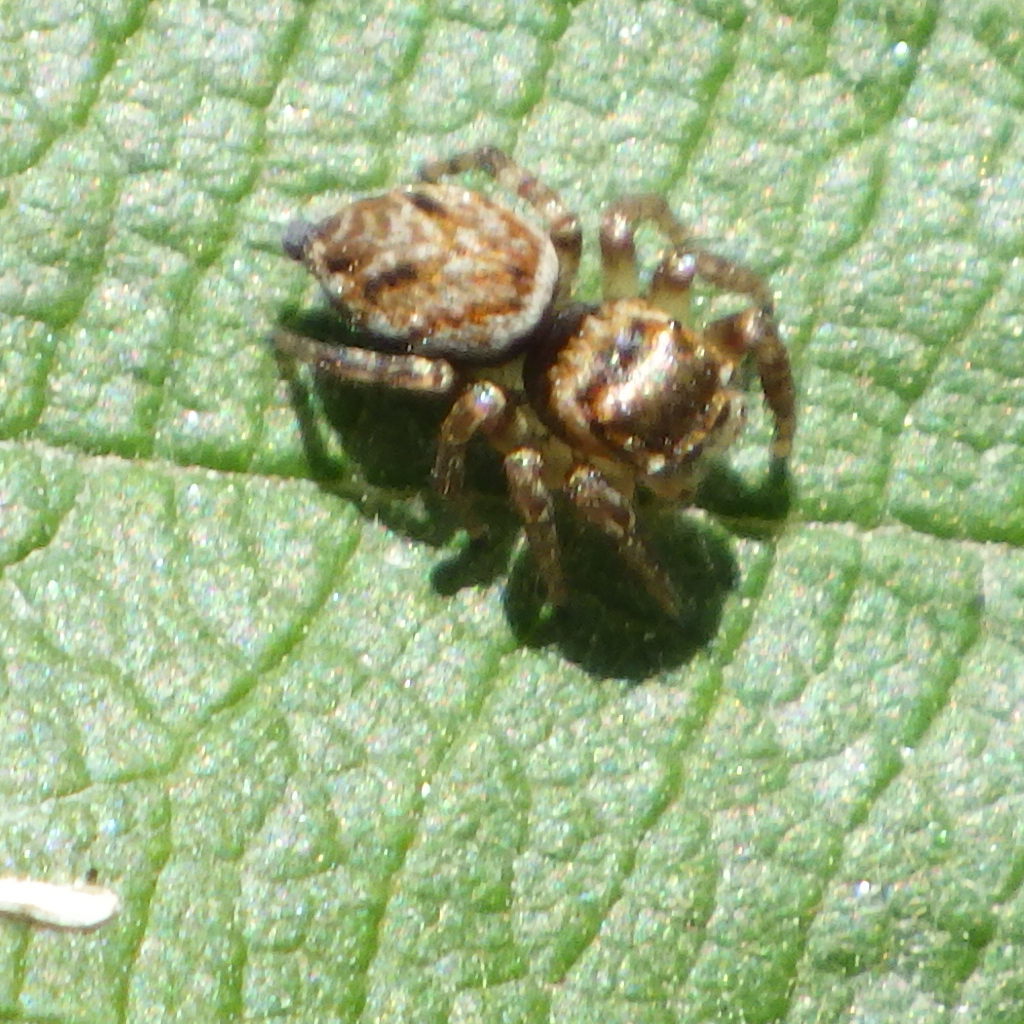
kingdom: Animalia
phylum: Arthropoda
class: Arachnida
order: Araneae
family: Salticidae
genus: Evarcha
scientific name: Evarcha hoyi
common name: Hoy's jumping spider
